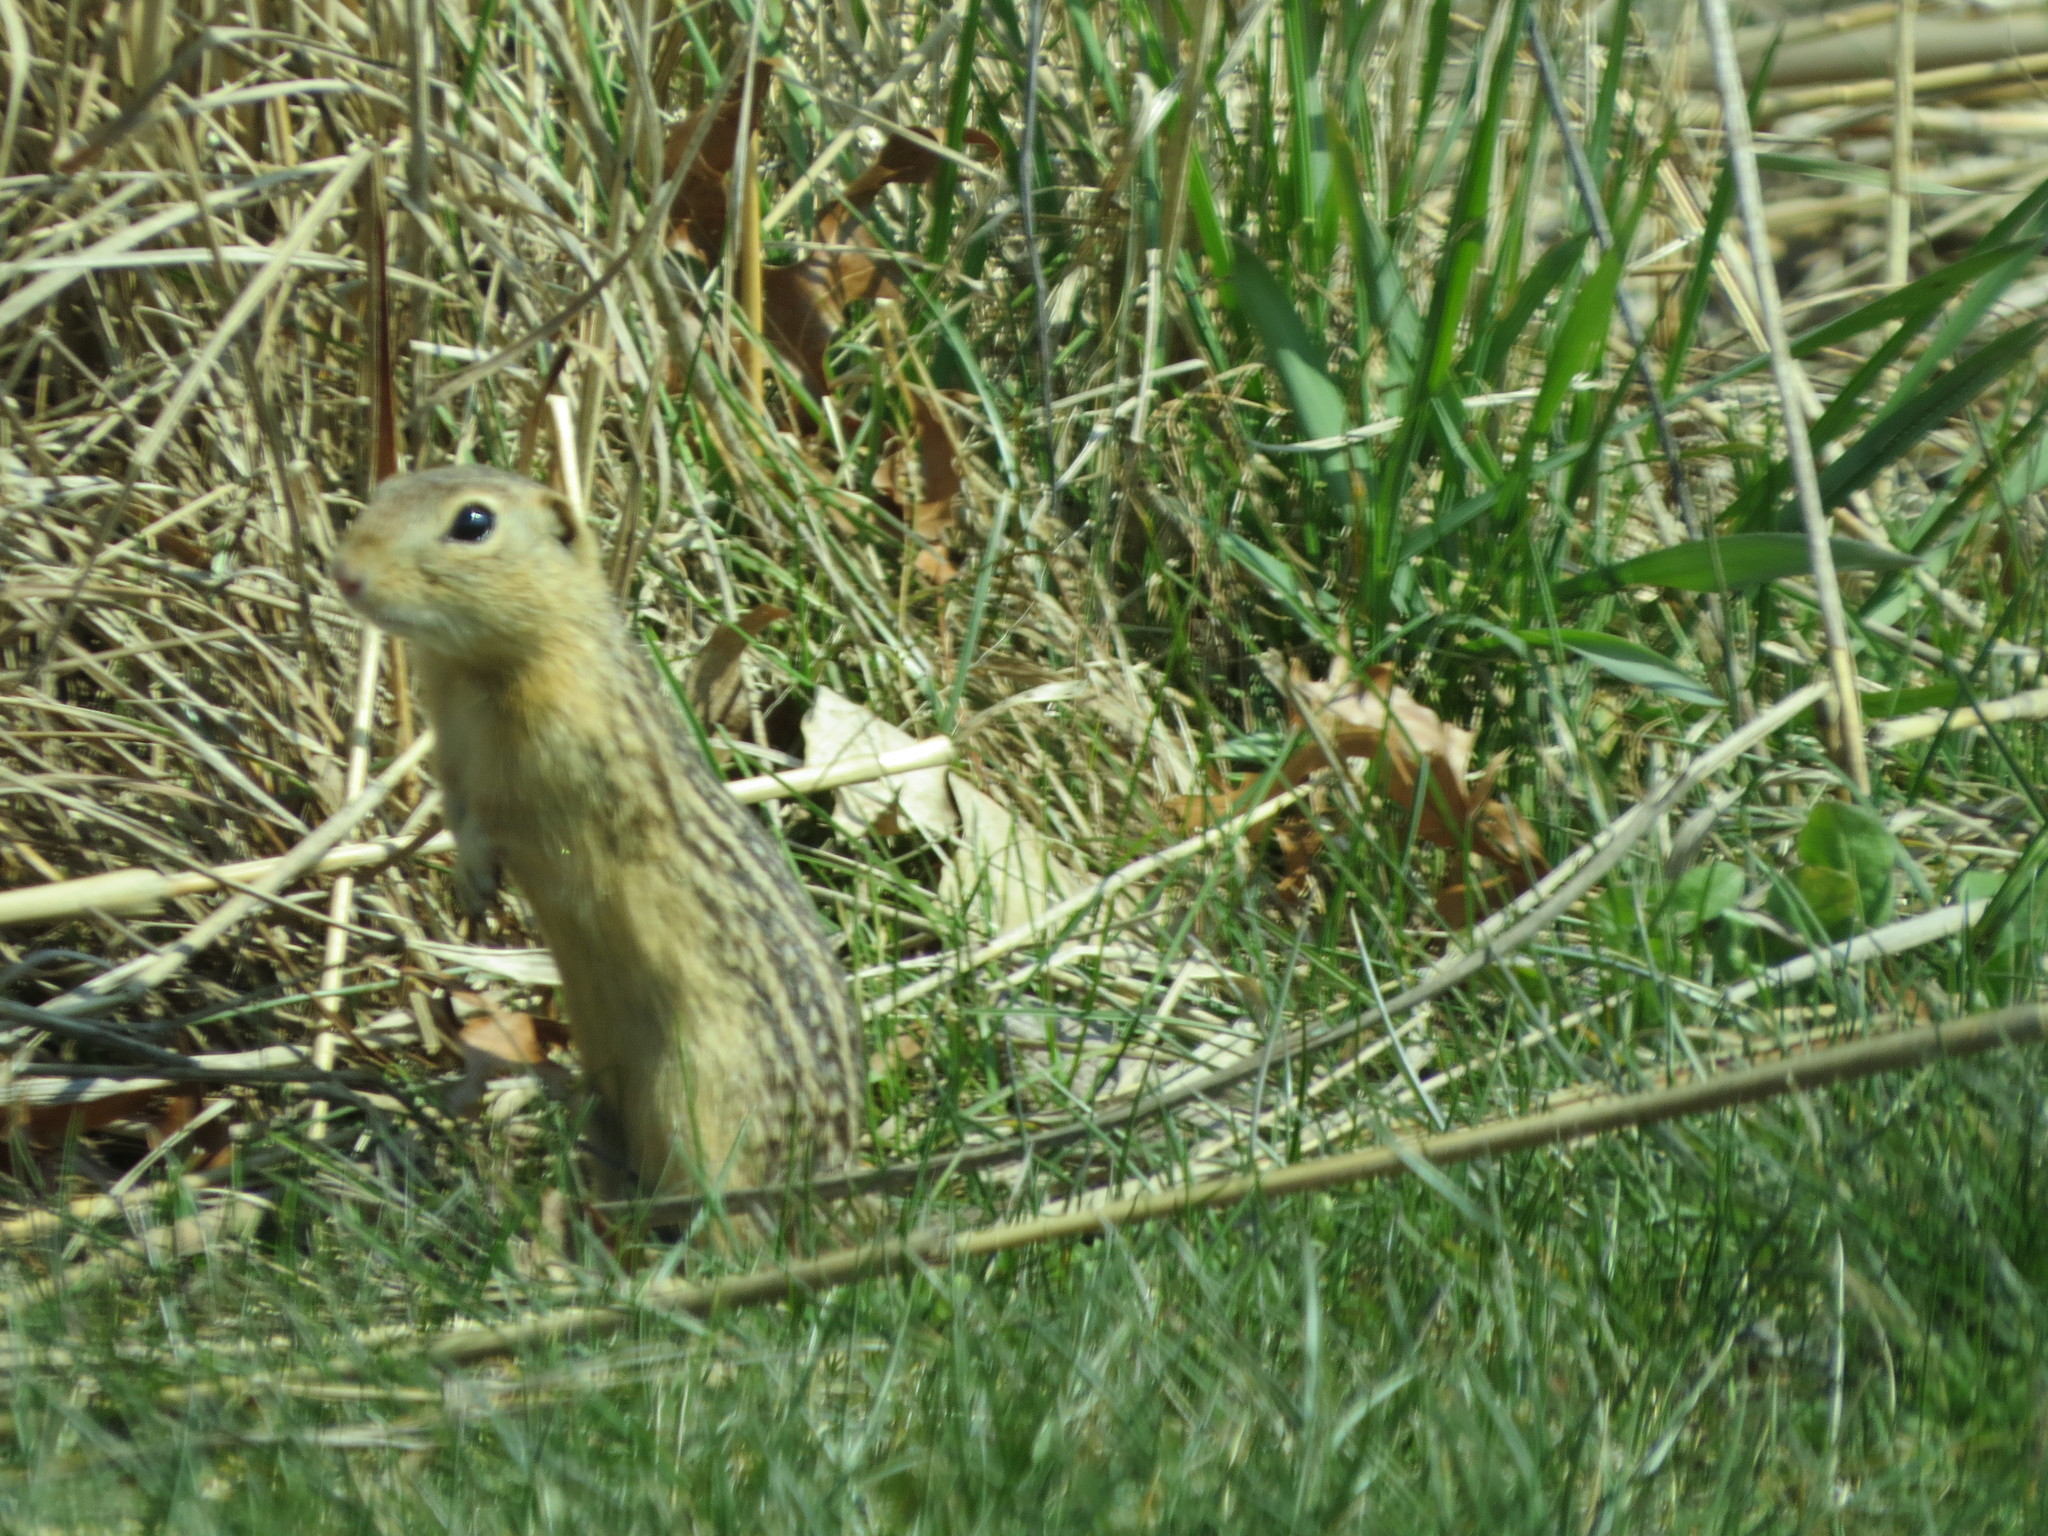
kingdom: Animalia
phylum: Chordata
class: Mammalia
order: Rodentia
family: Sciuridae
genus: Ictidomys
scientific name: Ictidomys tridecemlineatus
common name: Thirteen-lined ground squirrel
